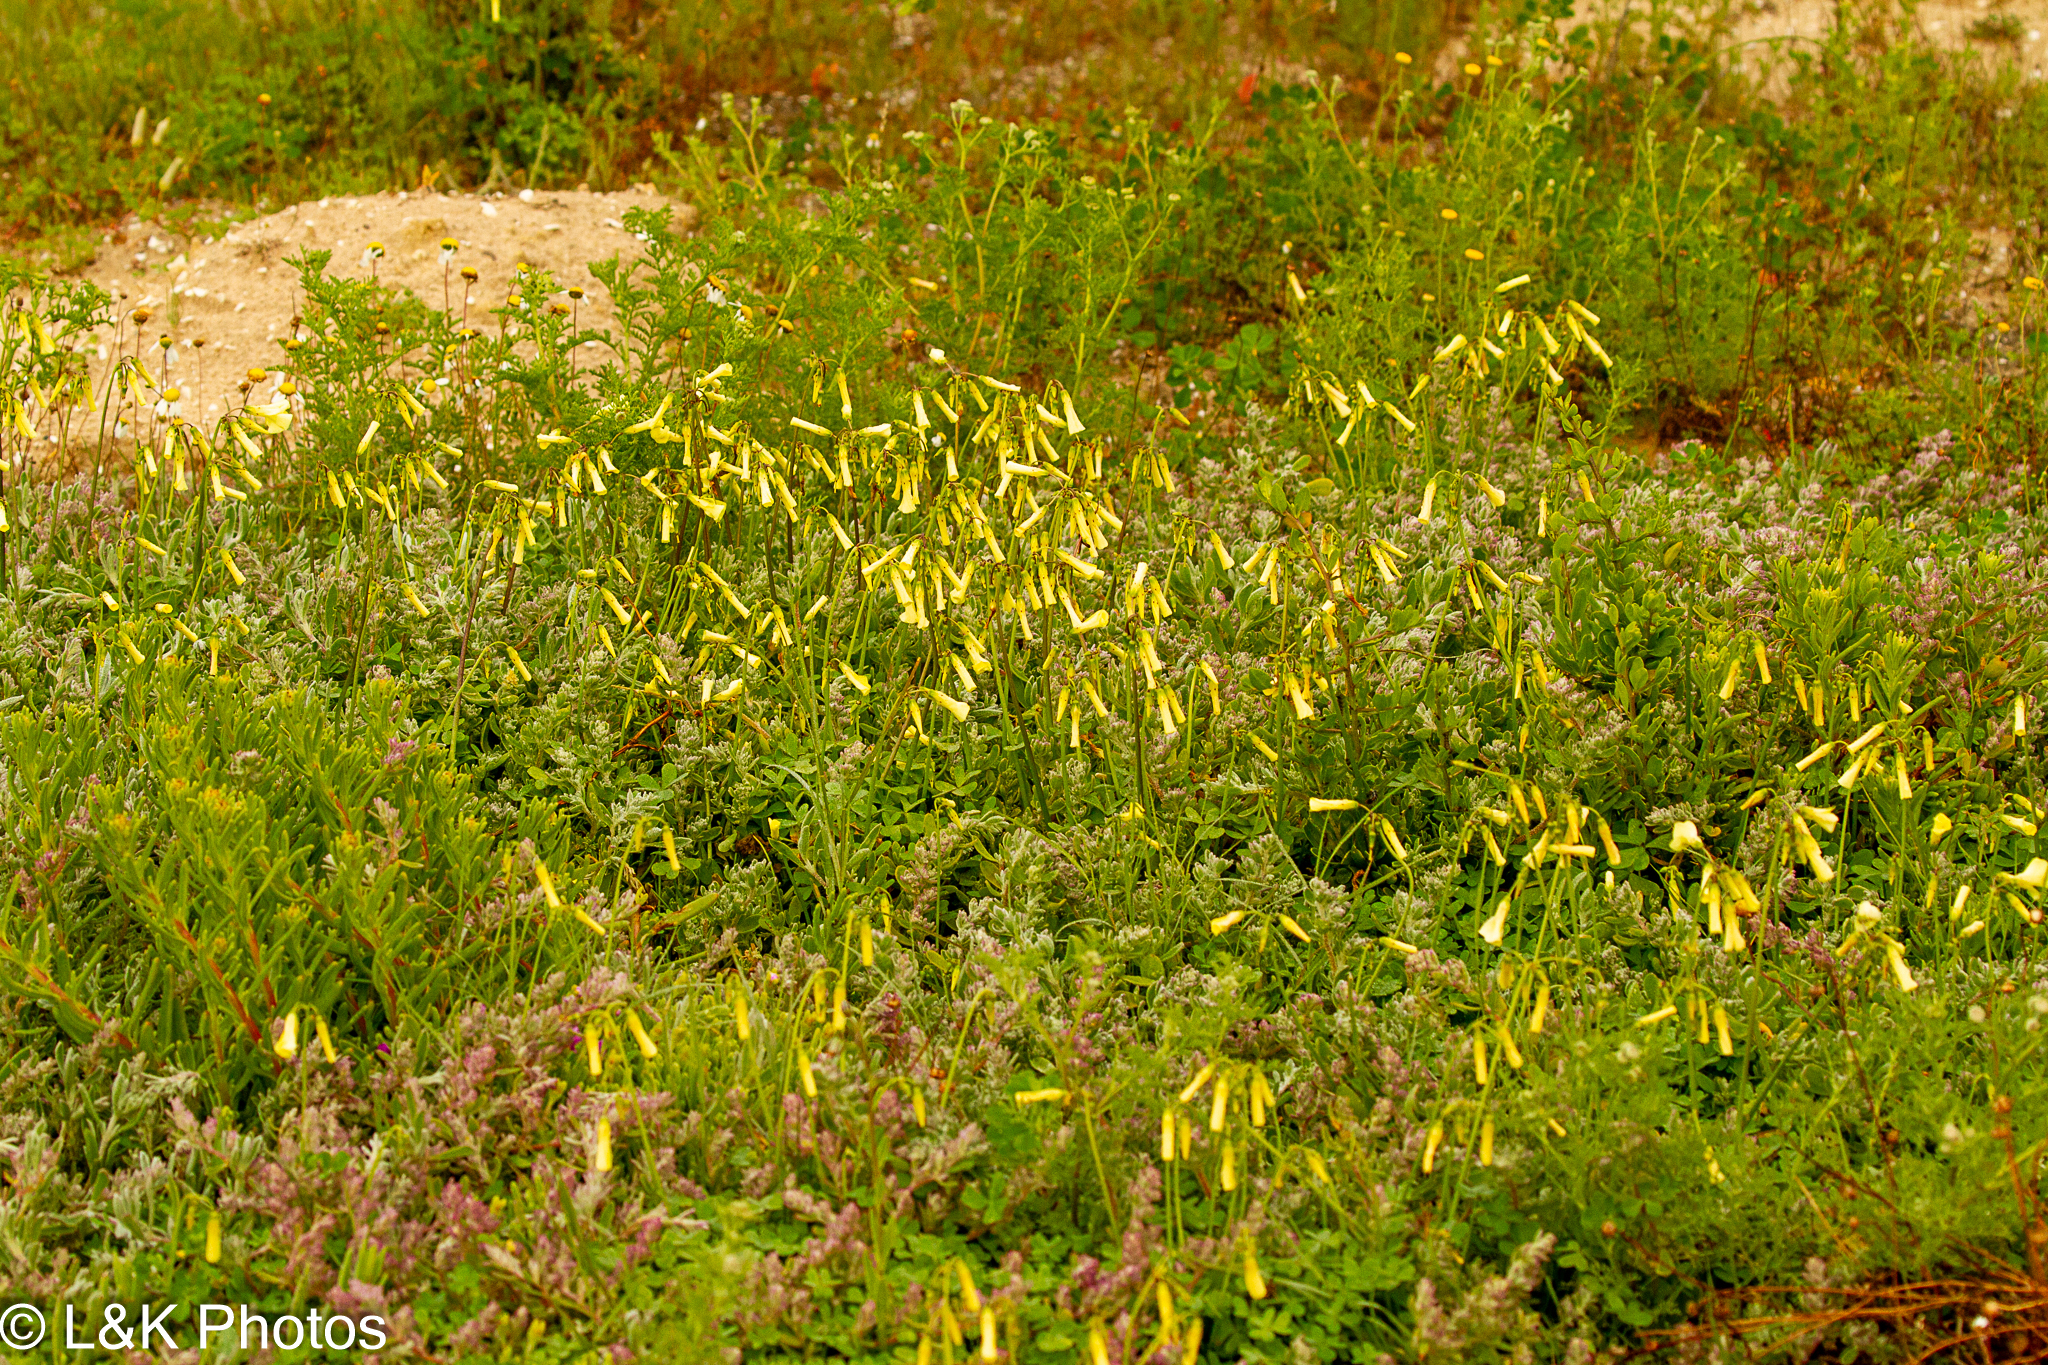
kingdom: Plantae
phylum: Tracheophyta
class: Magnoliopsida
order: Oxalidales
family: Oxalidaceae
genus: Oxalis
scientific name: Oxalis pes-caprae
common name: Bermuda-buttercup
